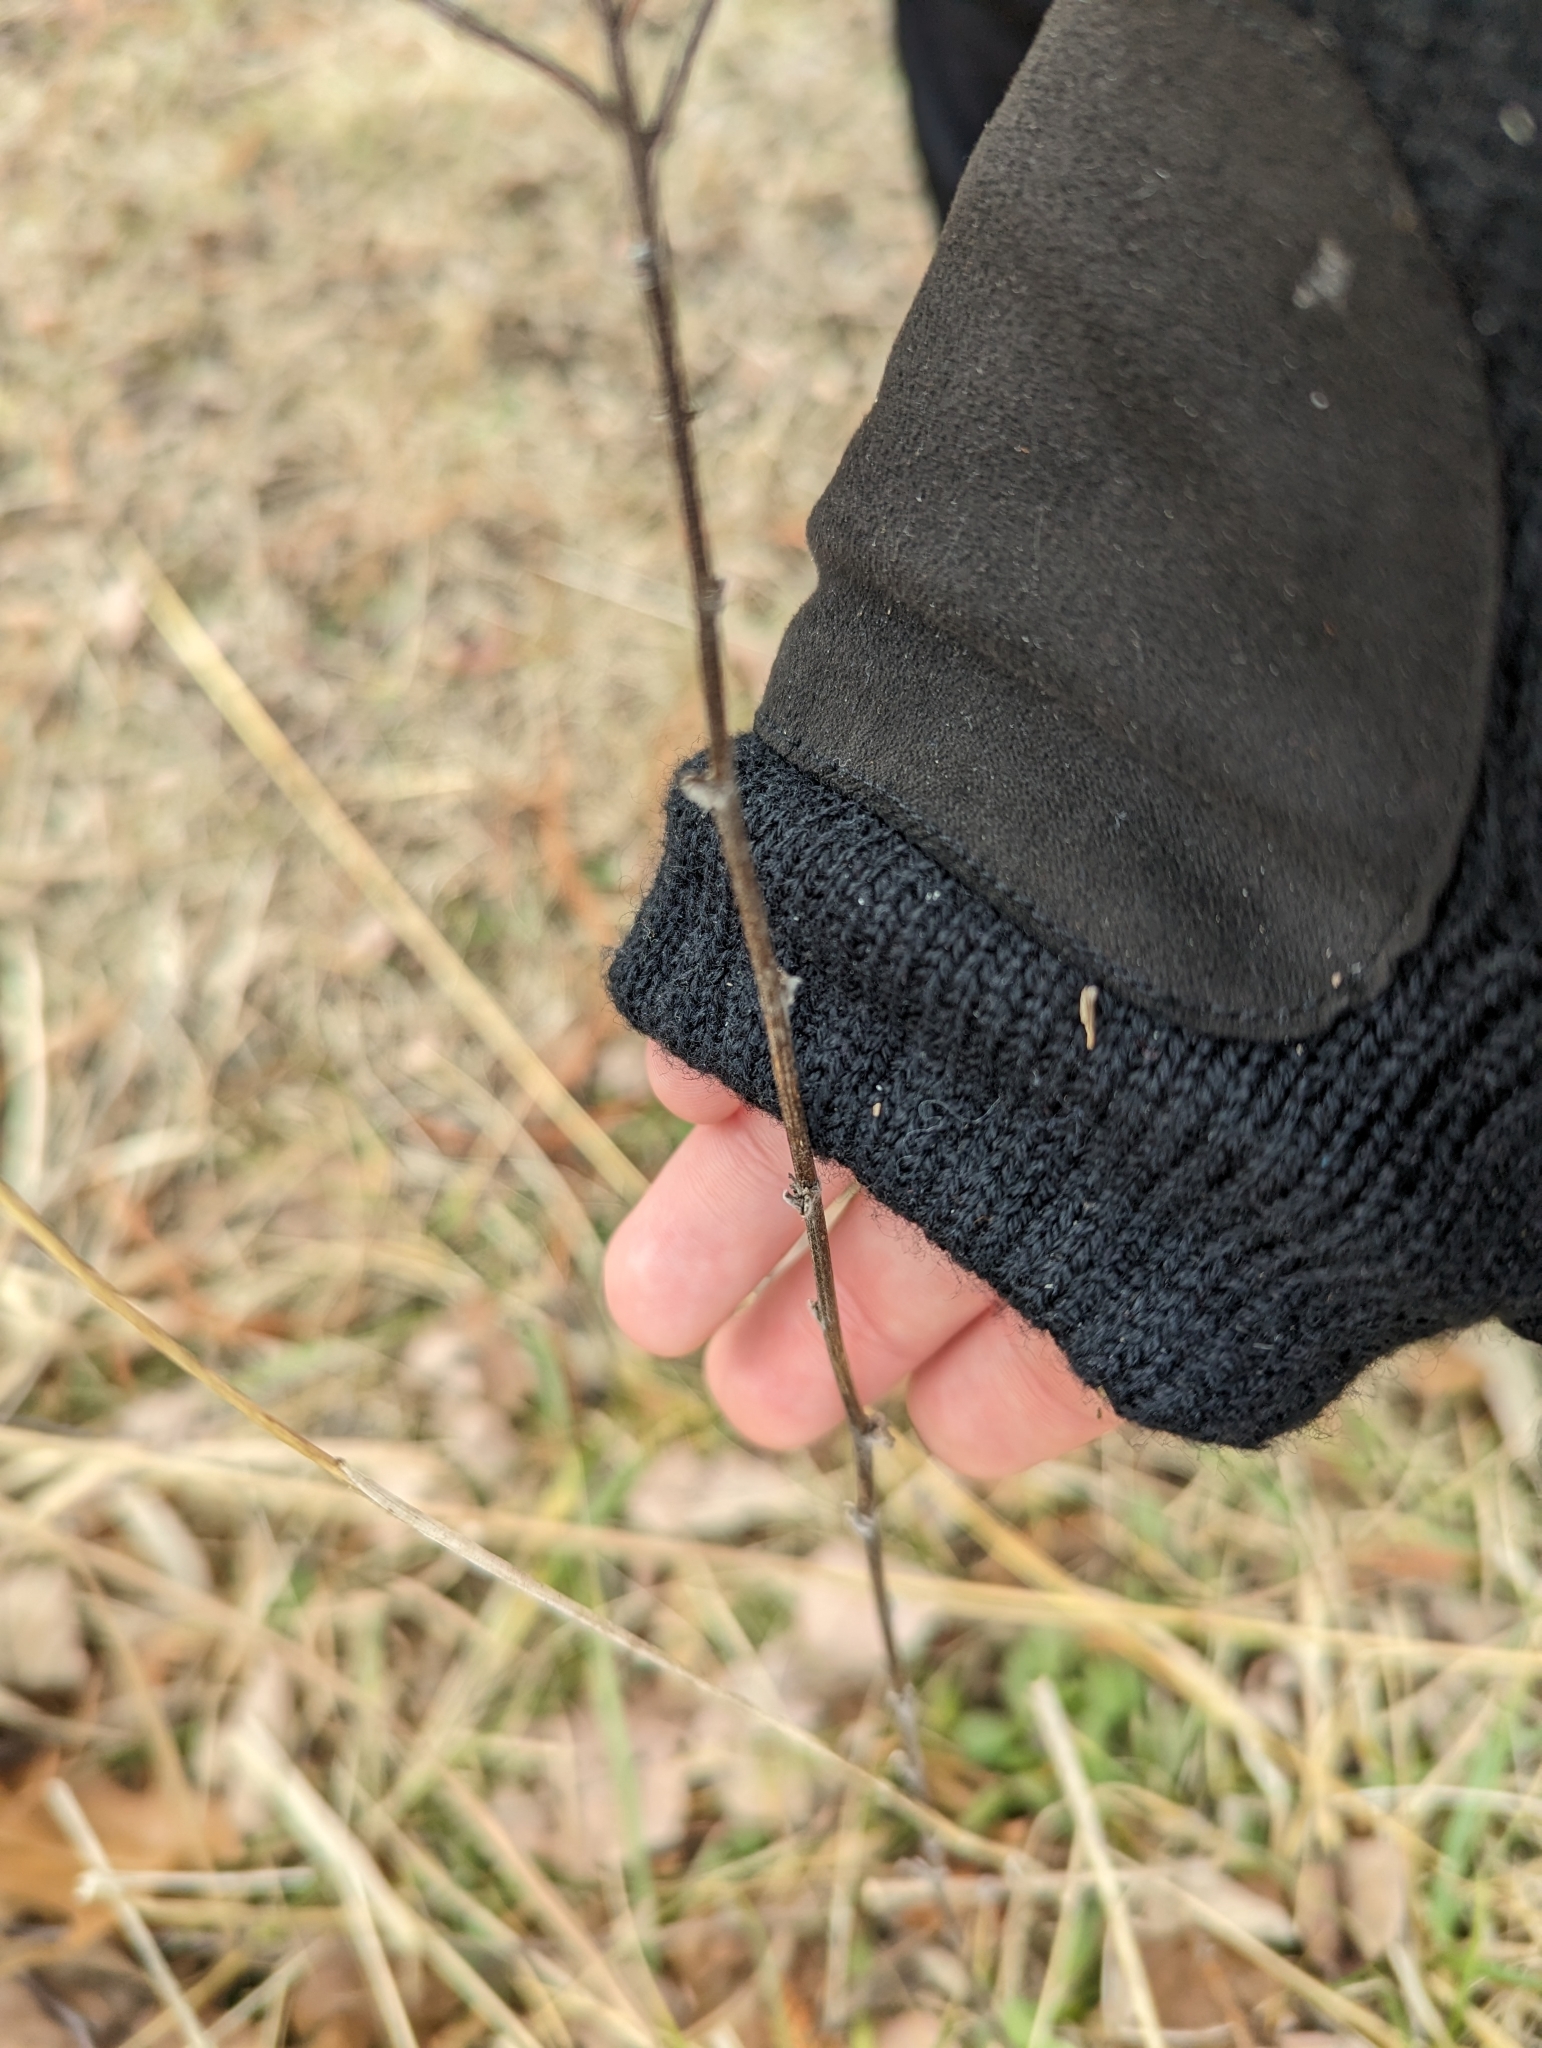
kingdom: Plantae
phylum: Tracheophyta
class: Magnoliopsida
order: Asterales
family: Asteraceae
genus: Achillea
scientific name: Achillea millefolium
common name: Yarrow
